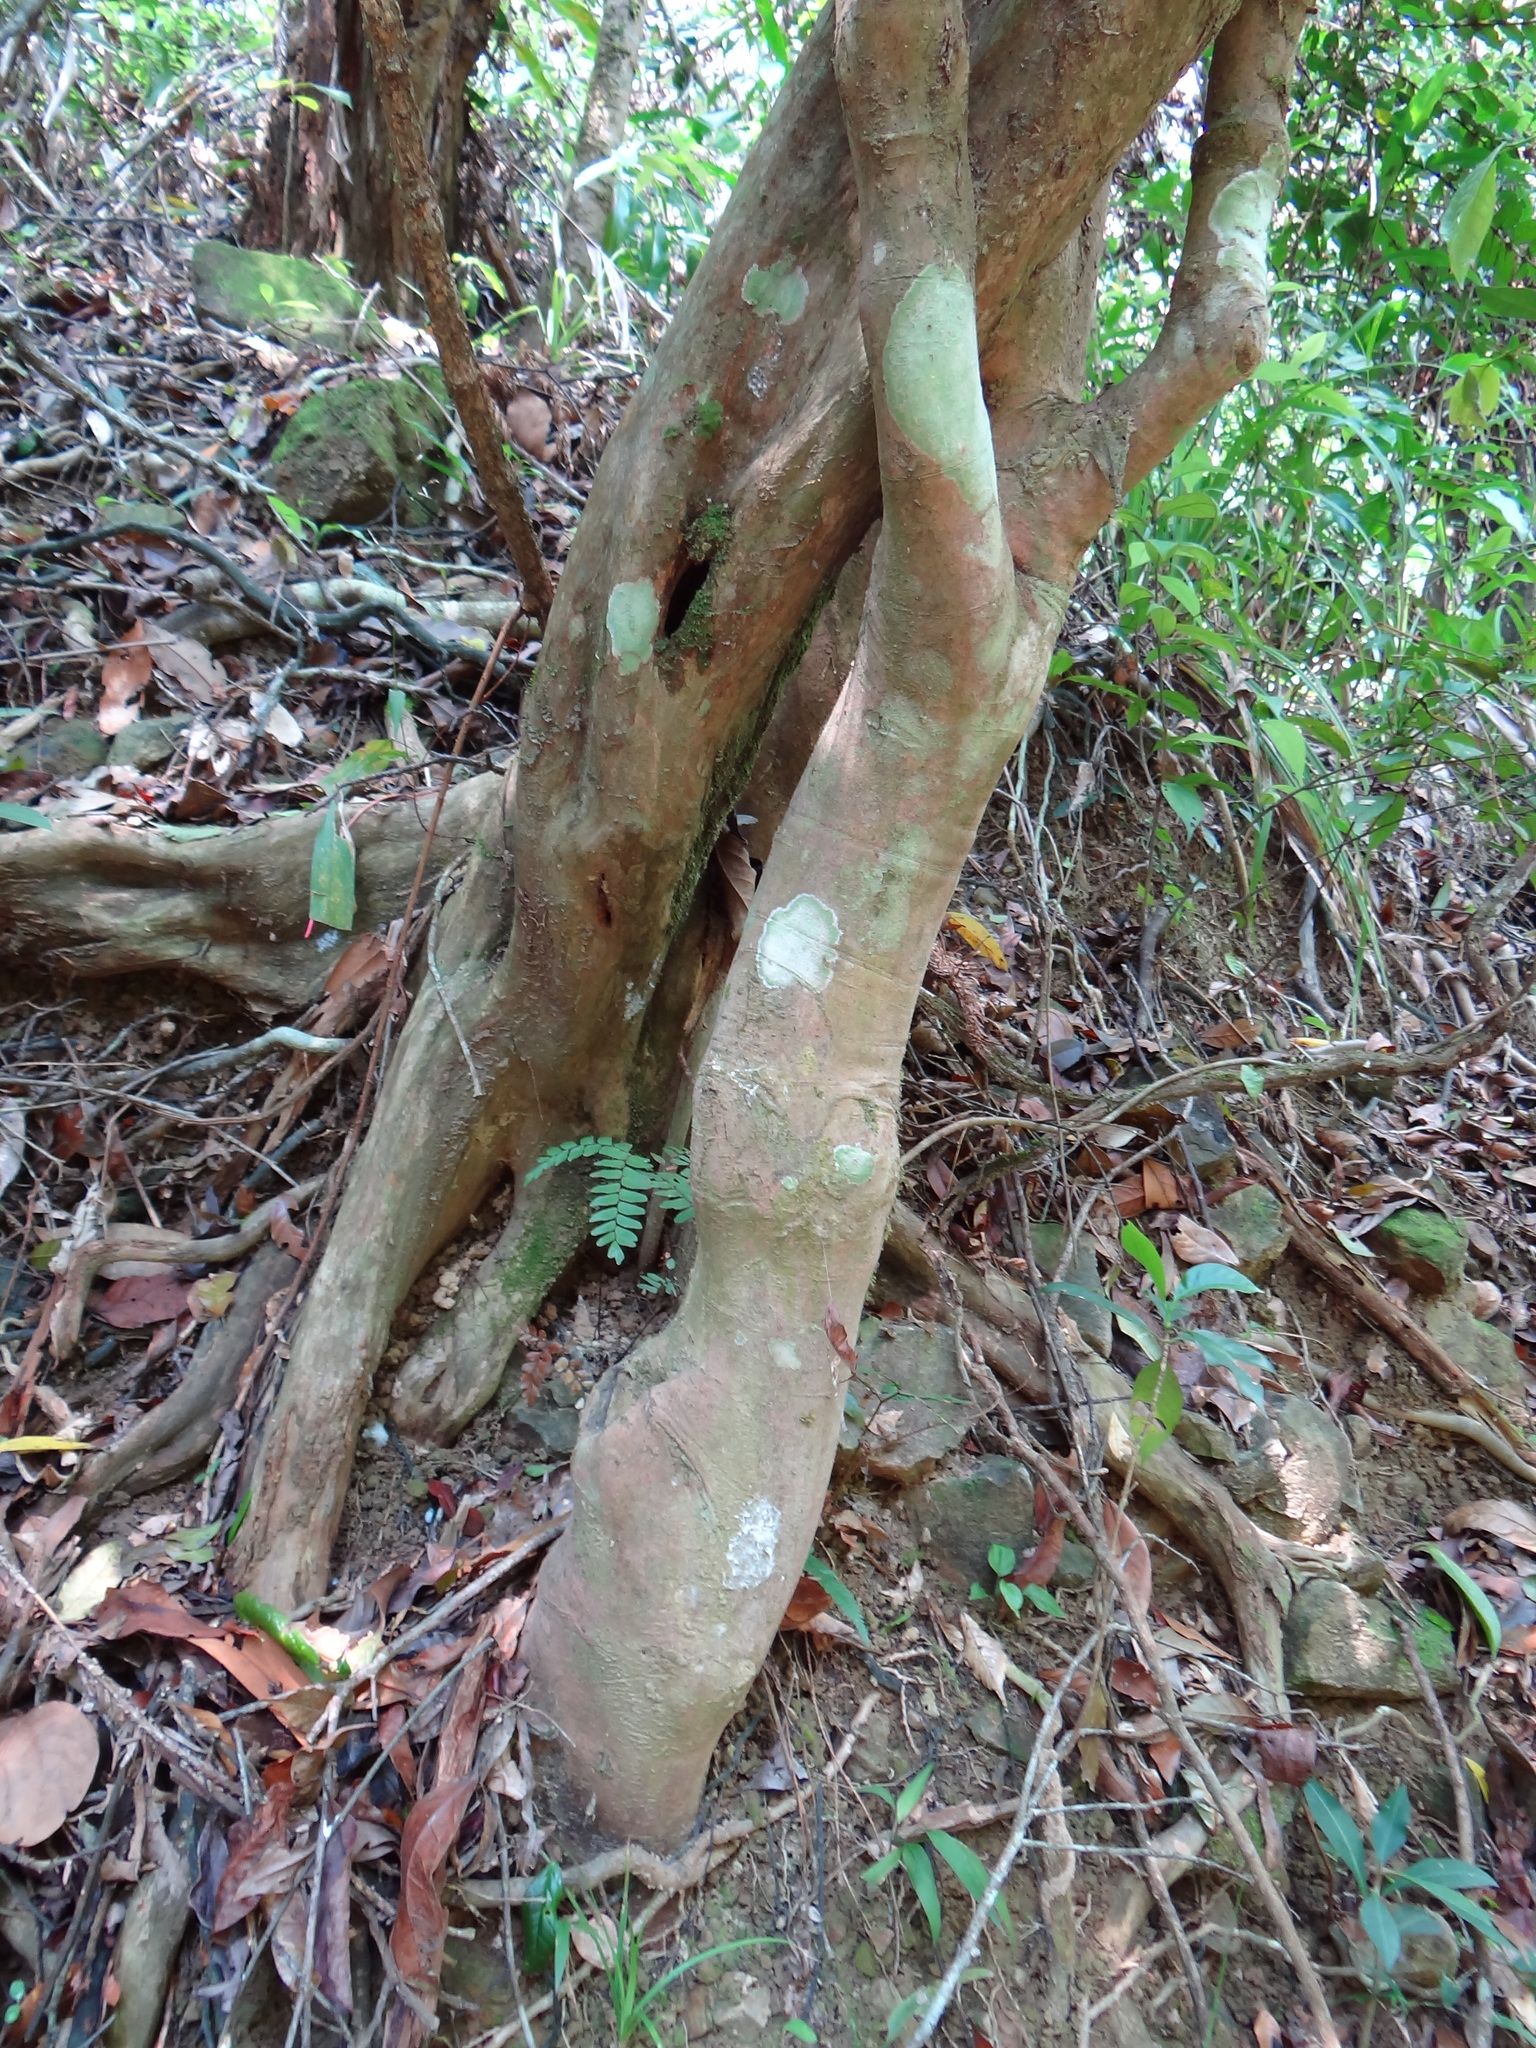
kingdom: Plantae
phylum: Tracheophyta
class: Magnoliopsida
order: Ericales
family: Theaceae
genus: Camellia
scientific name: Camellia furfuracea
